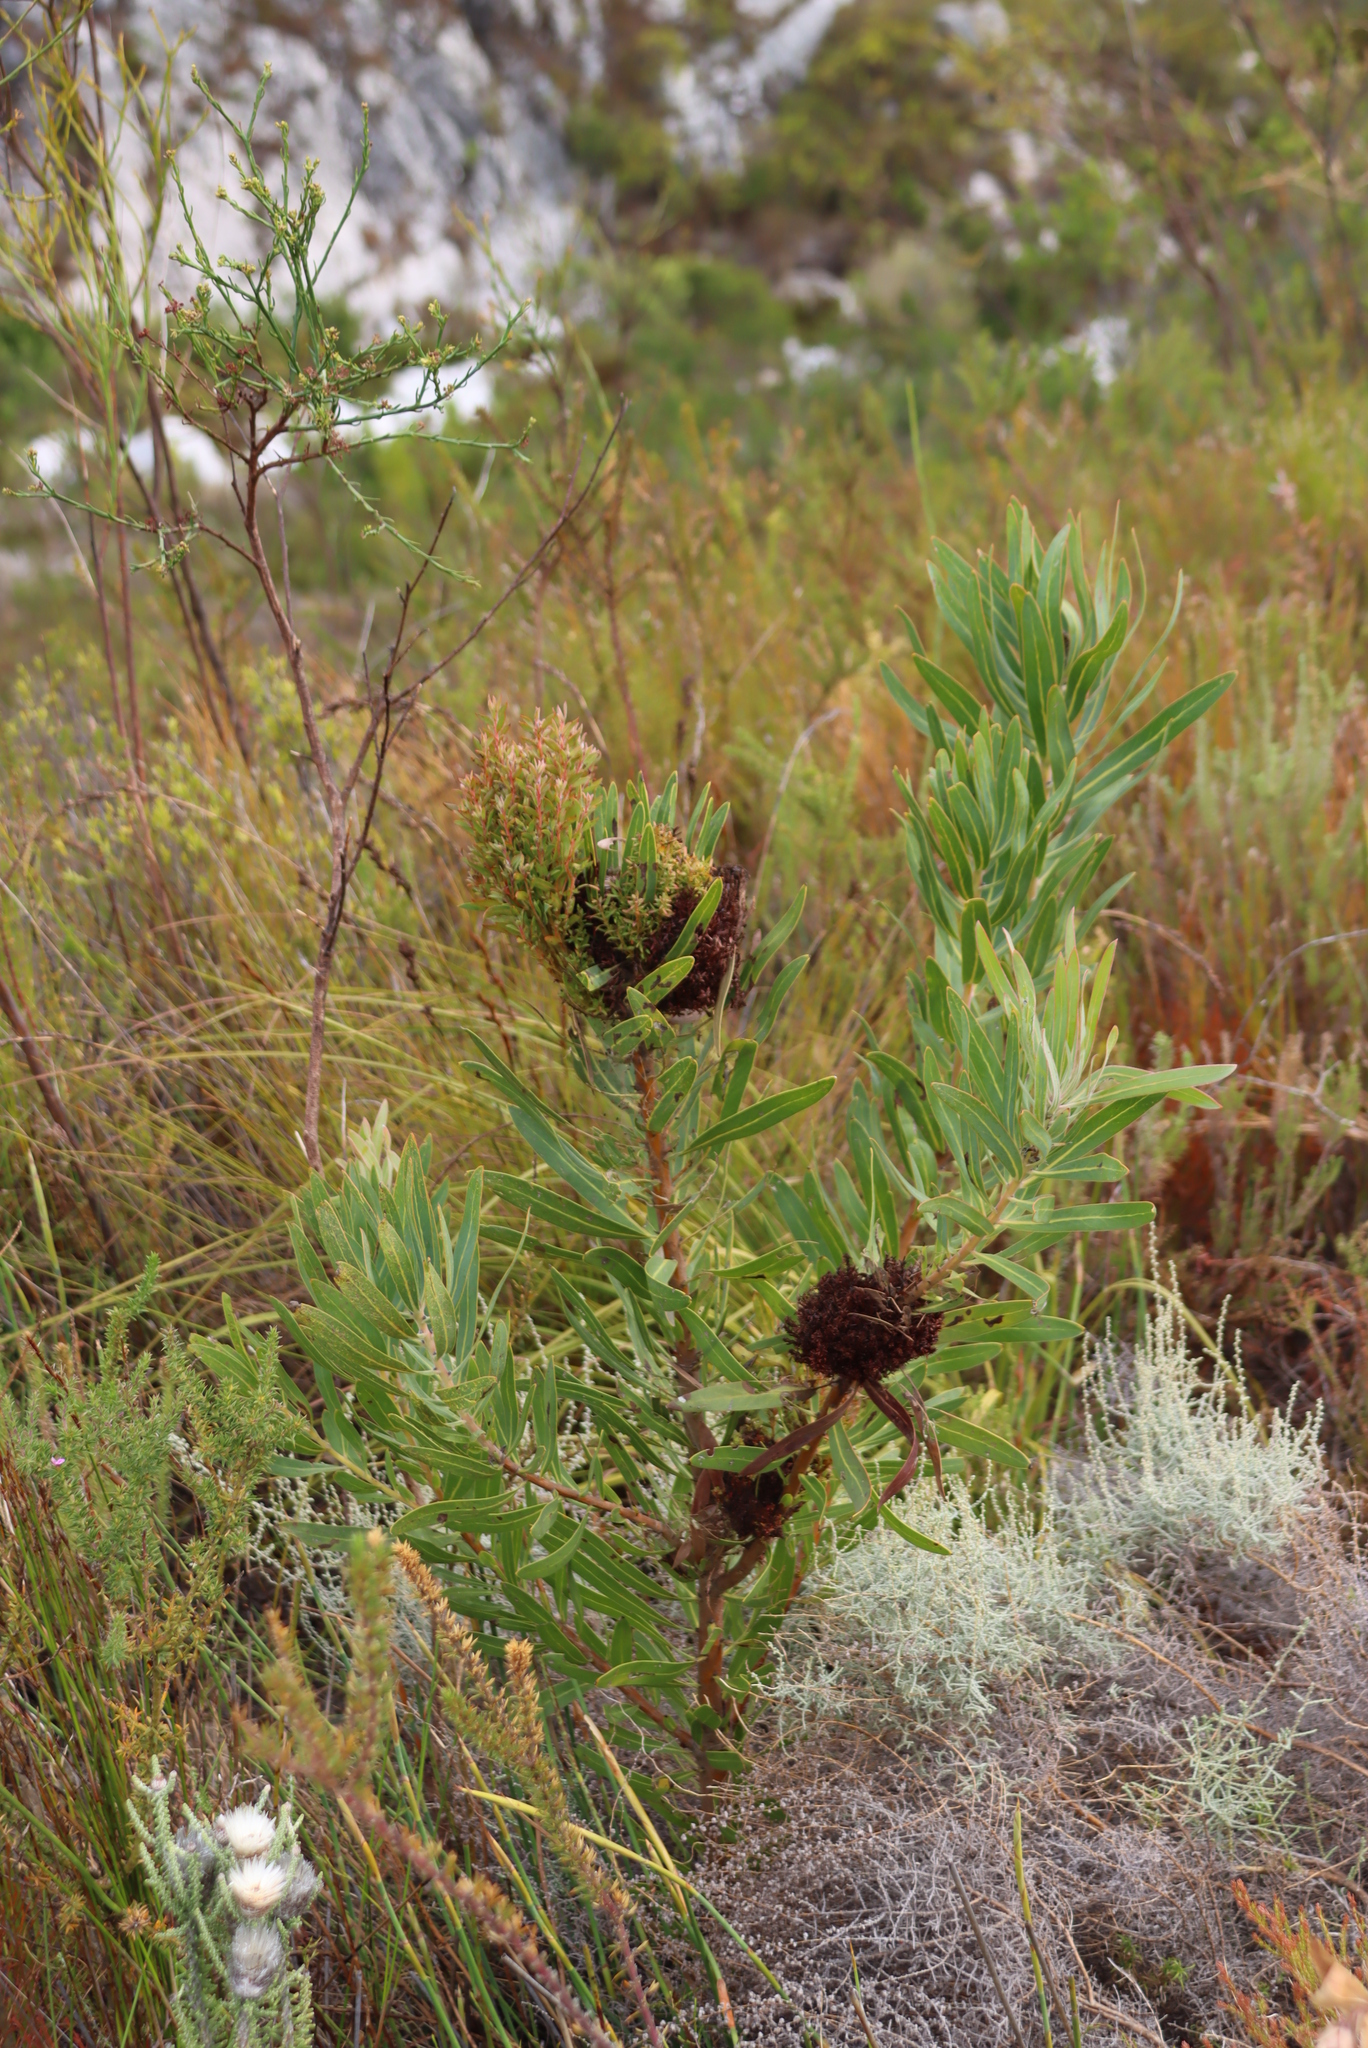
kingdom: Bacteria
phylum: Firmicutes
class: Bacilli
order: Acholeplasmatales
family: Acholeplasmataceae
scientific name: Acholeplasmataceae
